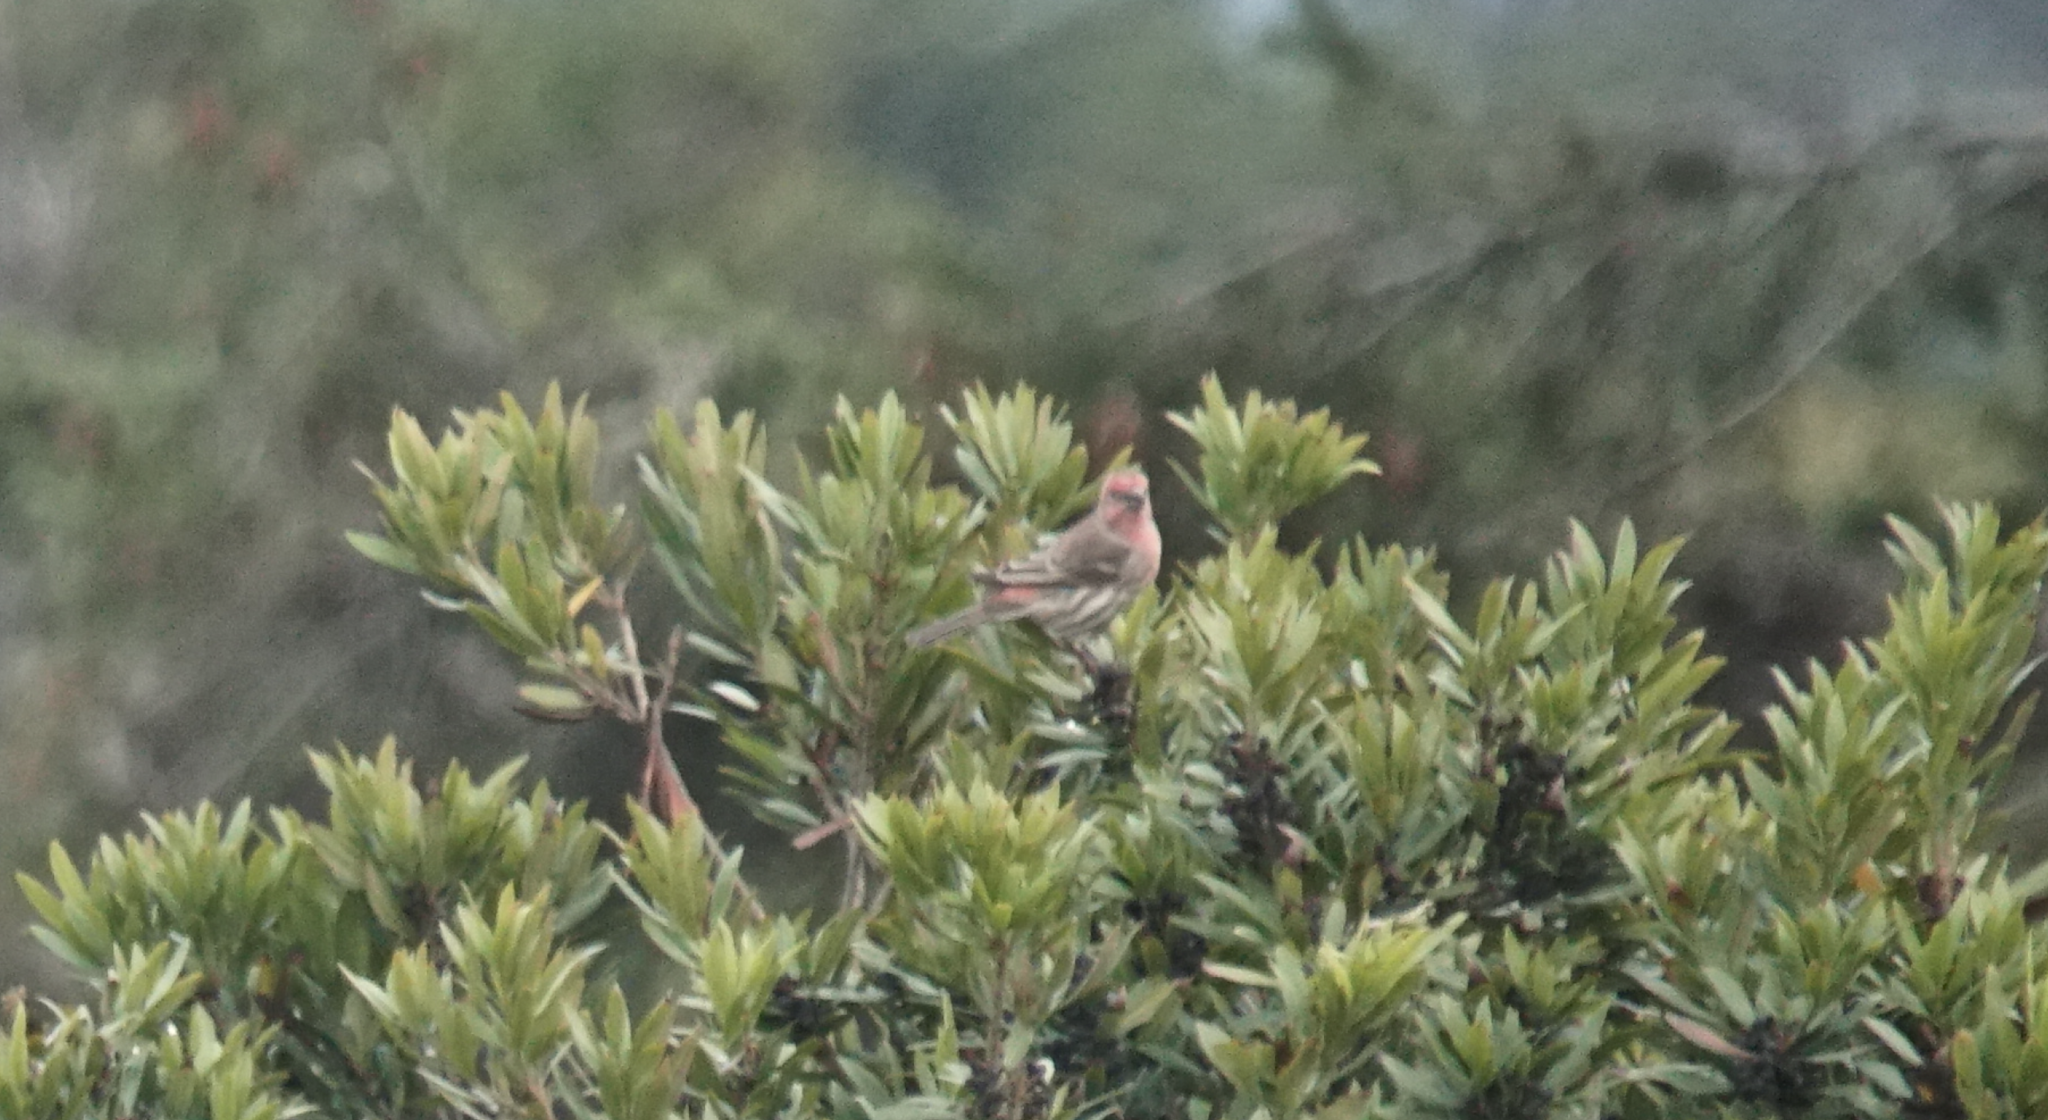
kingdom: Animalia
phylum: Chordata
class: Aves
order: Passeriformes
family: Fringillidae
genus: Haemorhous
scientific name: Haemorhous mexicanus
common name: House finch
